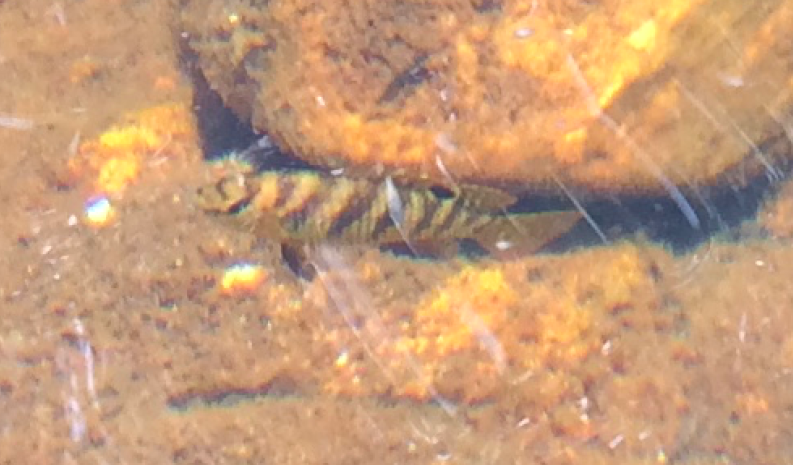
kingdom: Animalia
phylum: Chordata
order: Perciformes
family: Cichlidae
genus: Tilapia
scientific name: Tilapia sparrmanii
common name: Banded tilapia
